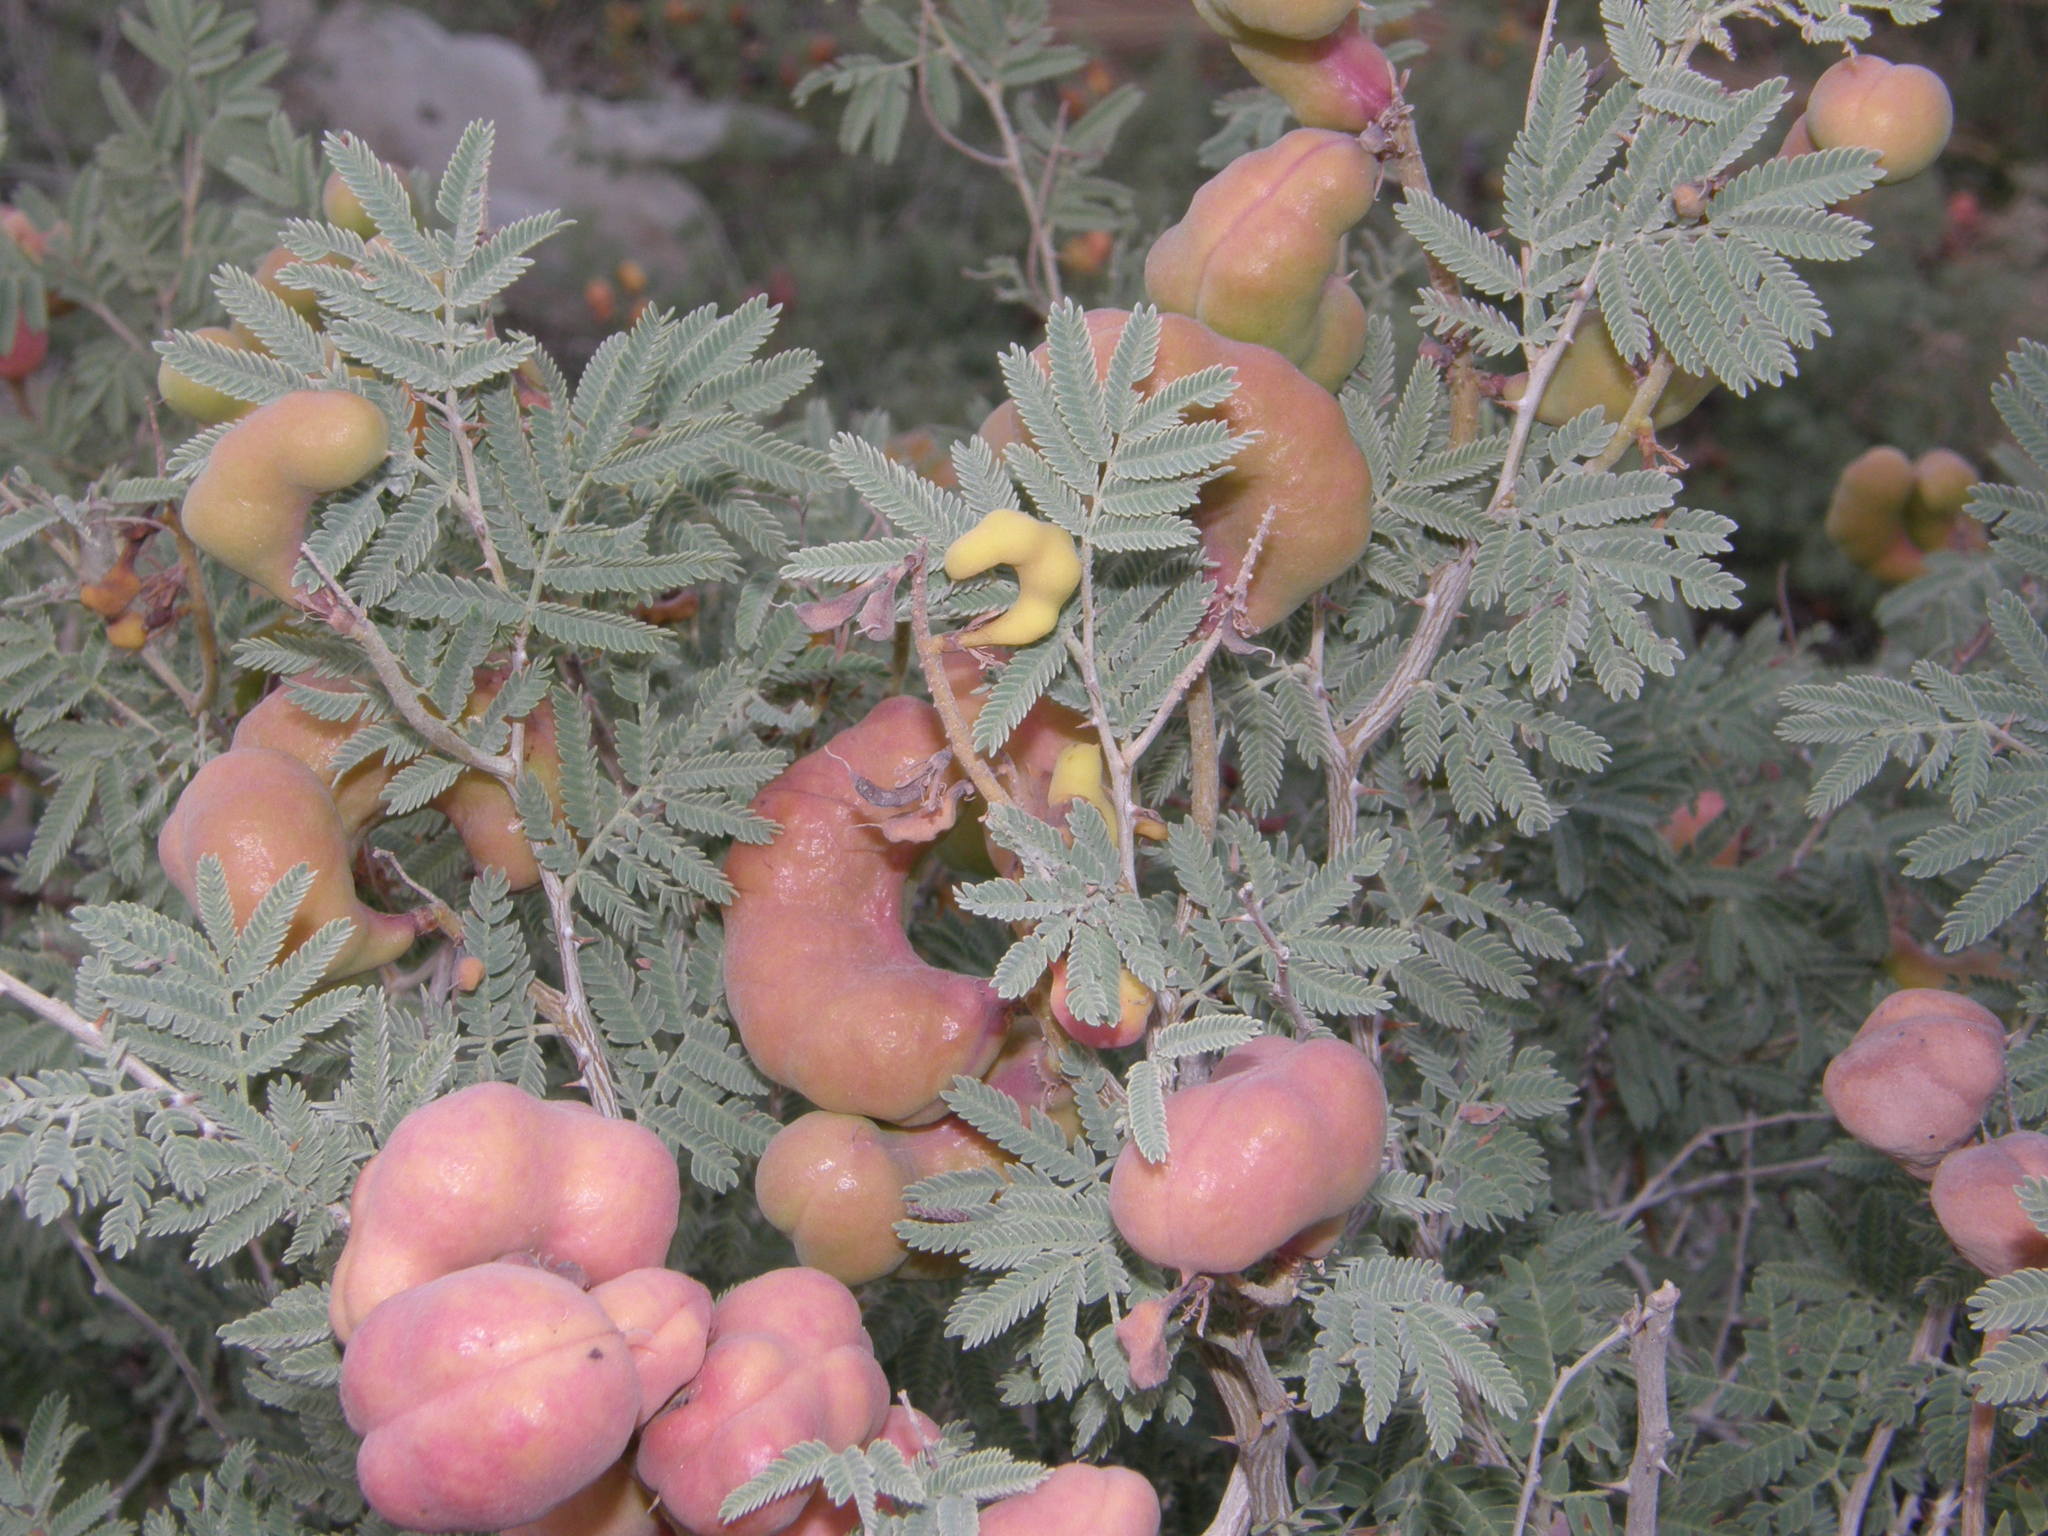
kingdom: Plantae
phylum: Tracheophyta
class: Magnoliopsida
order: Fabales
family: Fabaceae
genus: Prosopis
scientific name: Prosopis farcta
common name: Syrian mesquite
